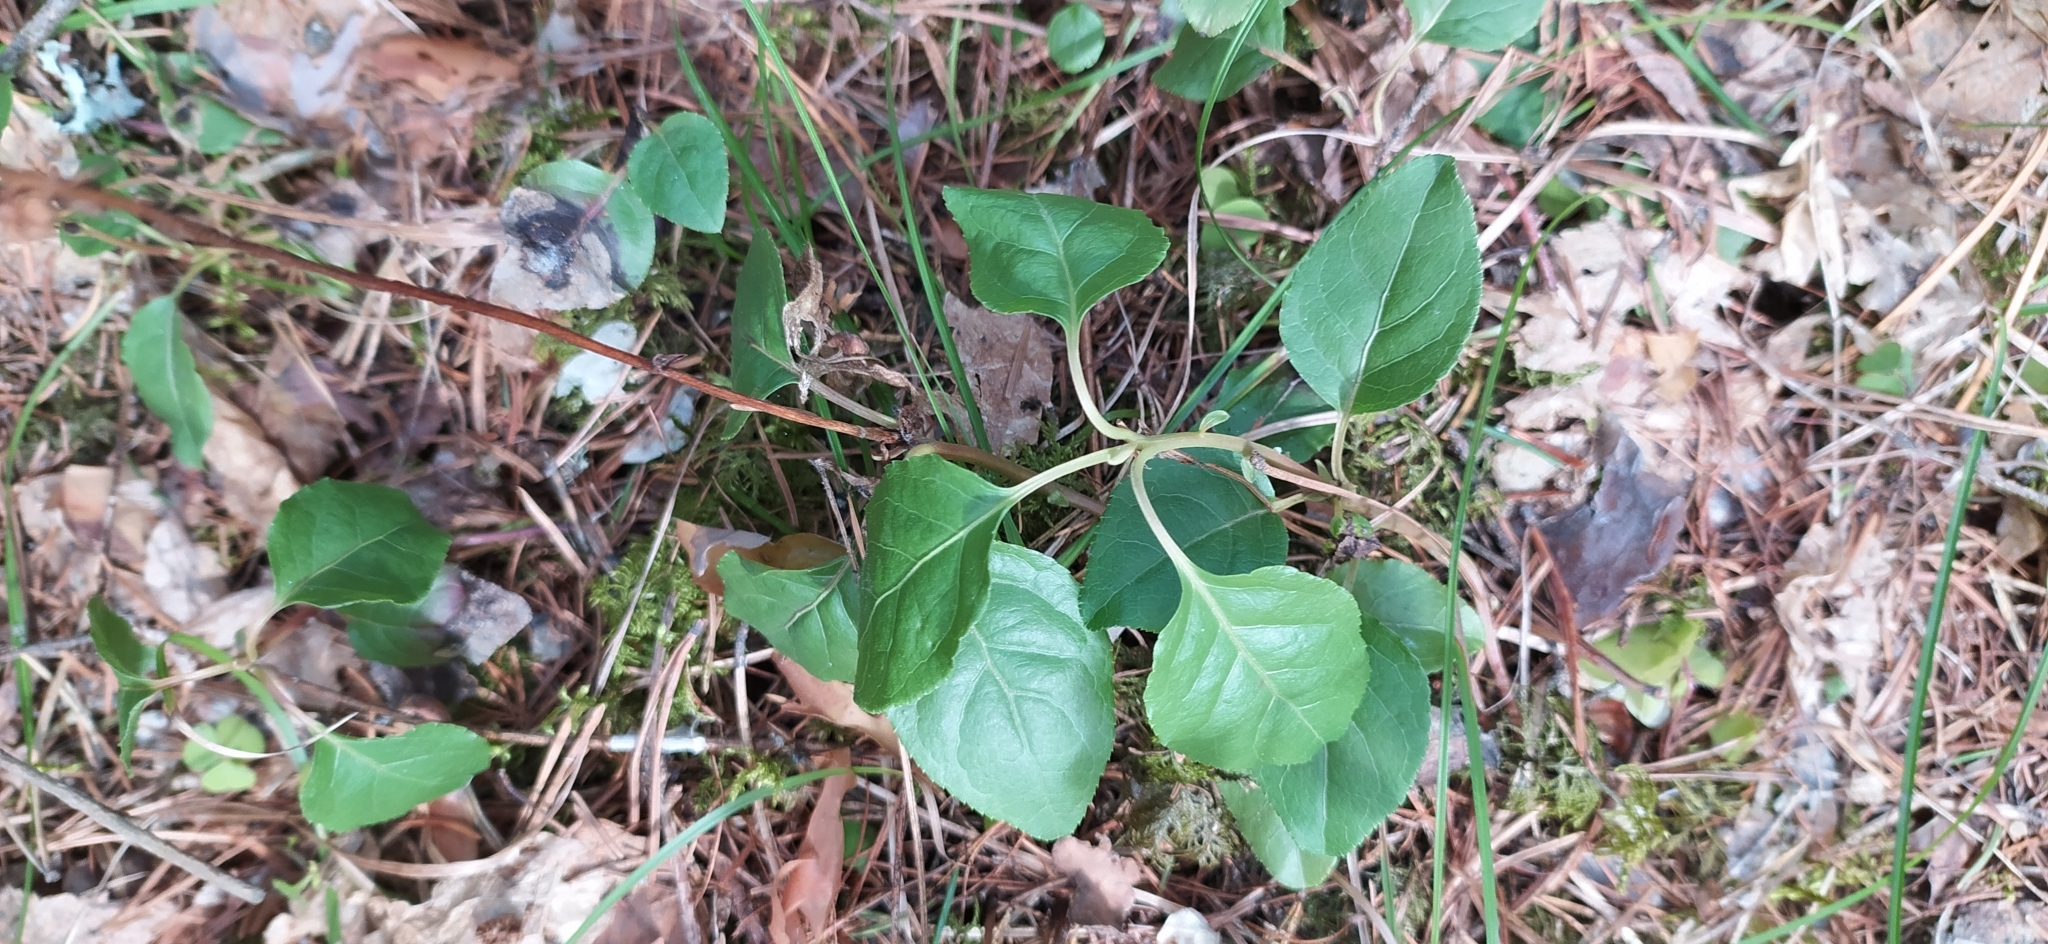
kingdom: Plantae
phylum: Tracheophyta
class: Magnoliopsida
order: Ericales
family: Ericaceae
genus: Orthilia
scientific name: Orthilia secunda
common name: One-sided orthilia
